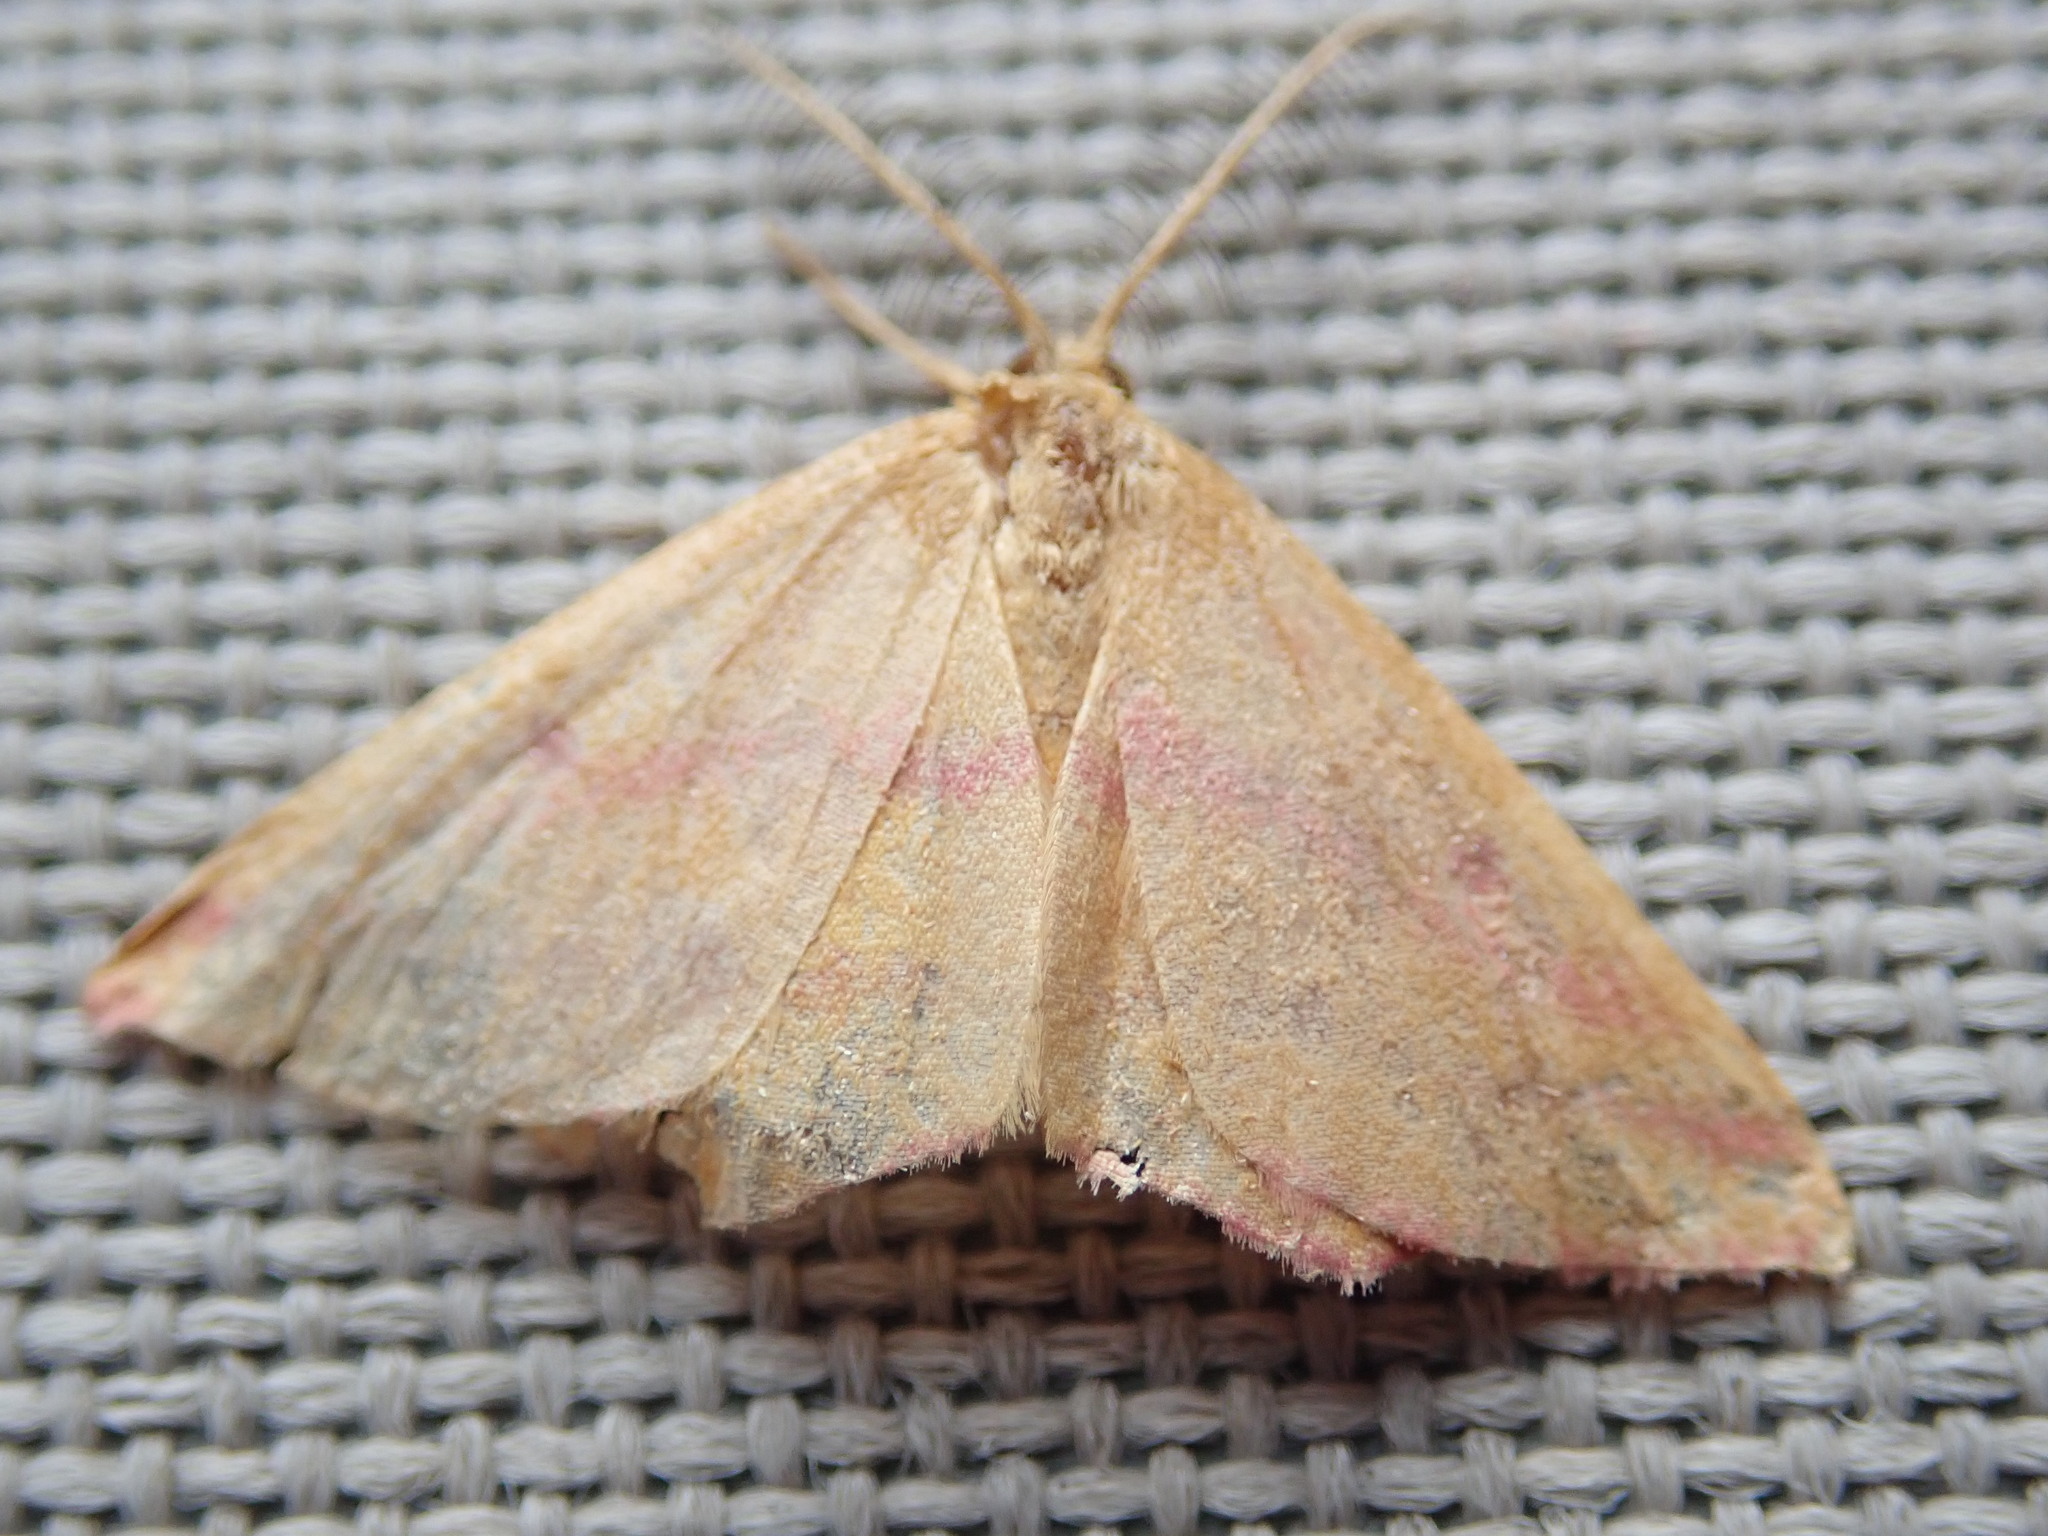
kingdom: Animalia
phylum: Arthropoda
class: Insecta
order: Lepidoptera
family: Geometridae
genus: Haematopis
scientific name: Haematopis grataria
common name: Chickweed geometer
